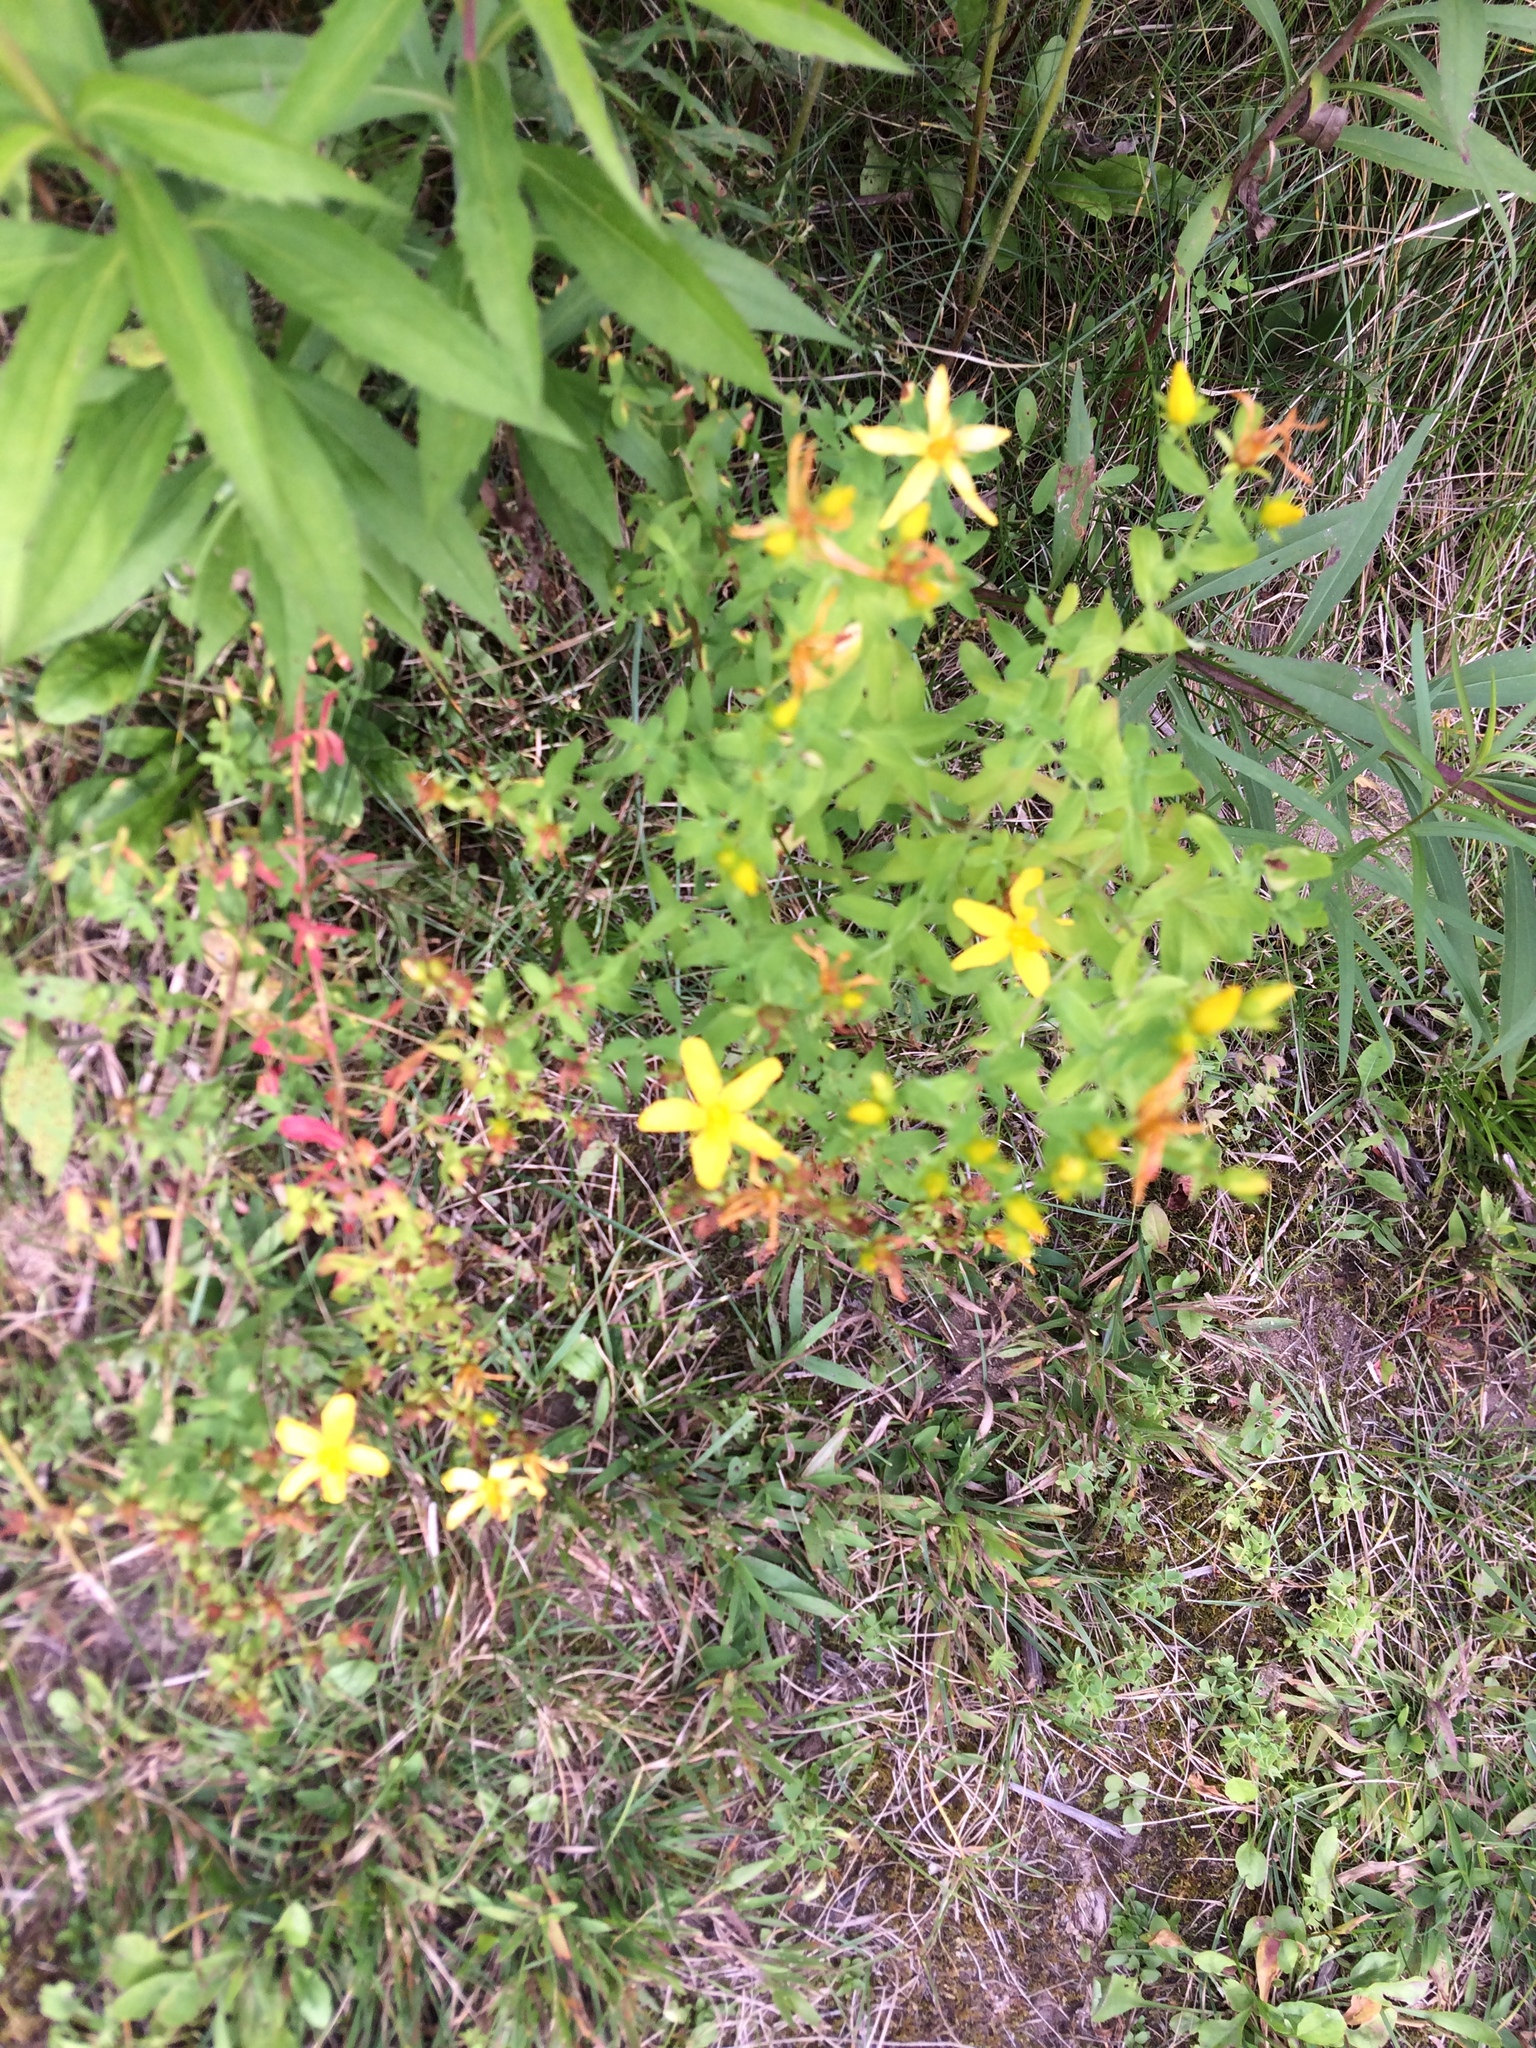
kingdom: Plantae
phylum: Tracheophyta
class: Magnoliopsida
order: Malpighiales
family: Hypericaceae
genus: Hypericum
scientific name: Hypericum perforatum
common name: Common st. johnswort
